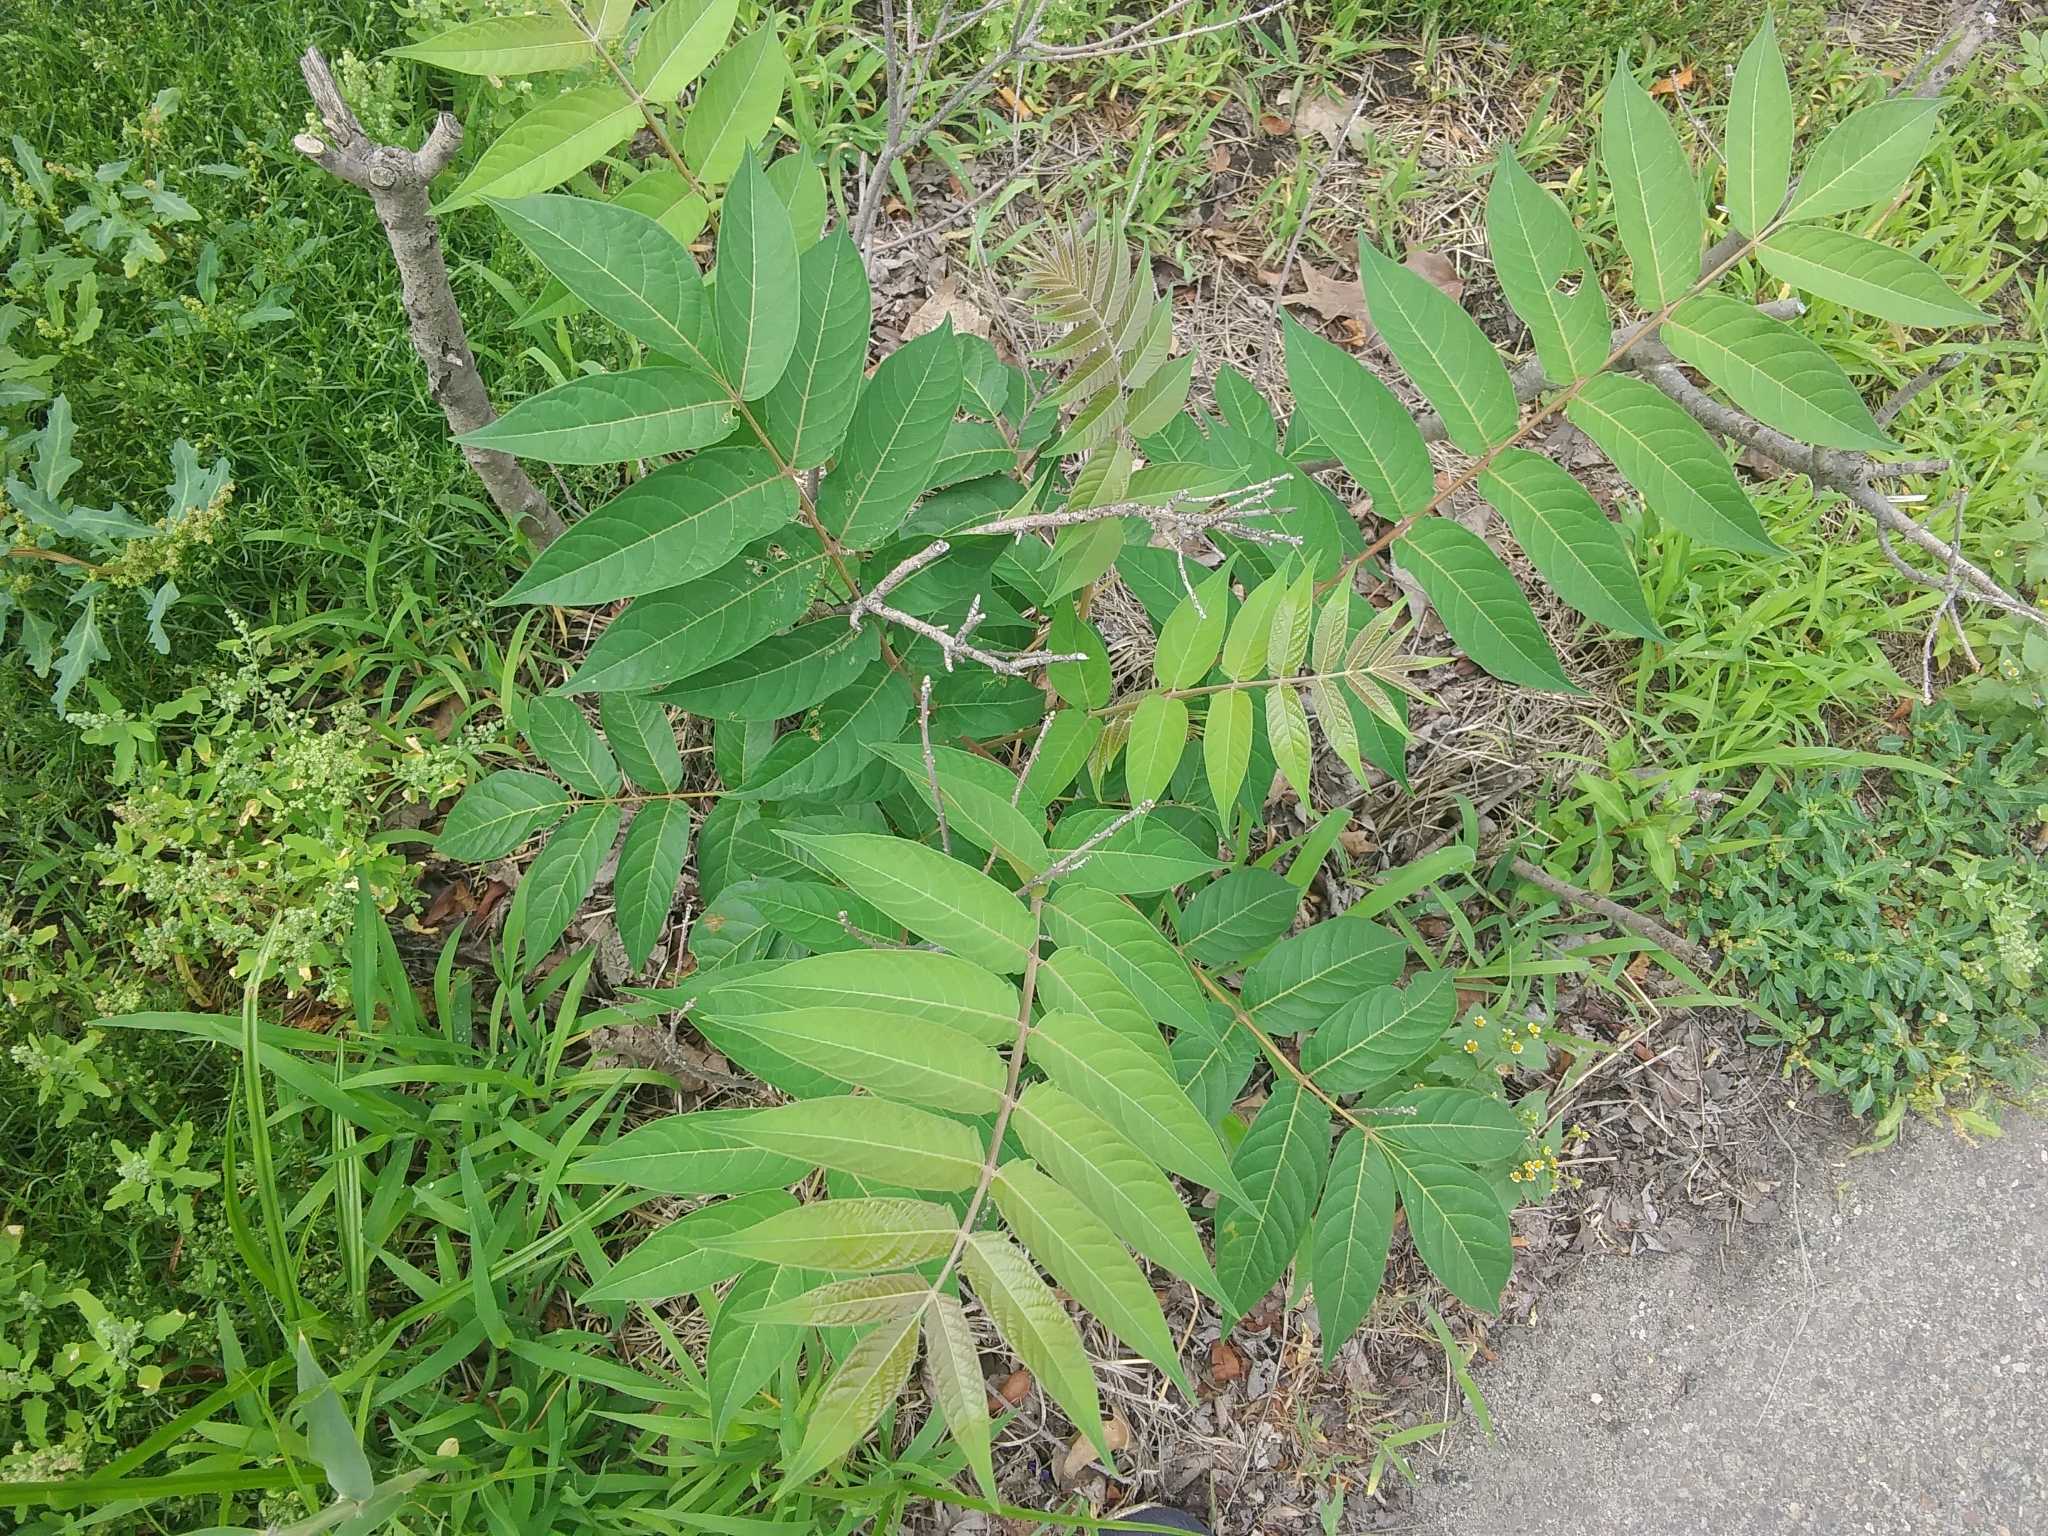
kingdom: Plantae
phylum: Tracheophyta
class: Magnoliopsida
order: Sapindales
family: Simaroubaceae
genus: Ailanthus
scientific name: Ailanthus altissima
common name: Tree-of-heaven
